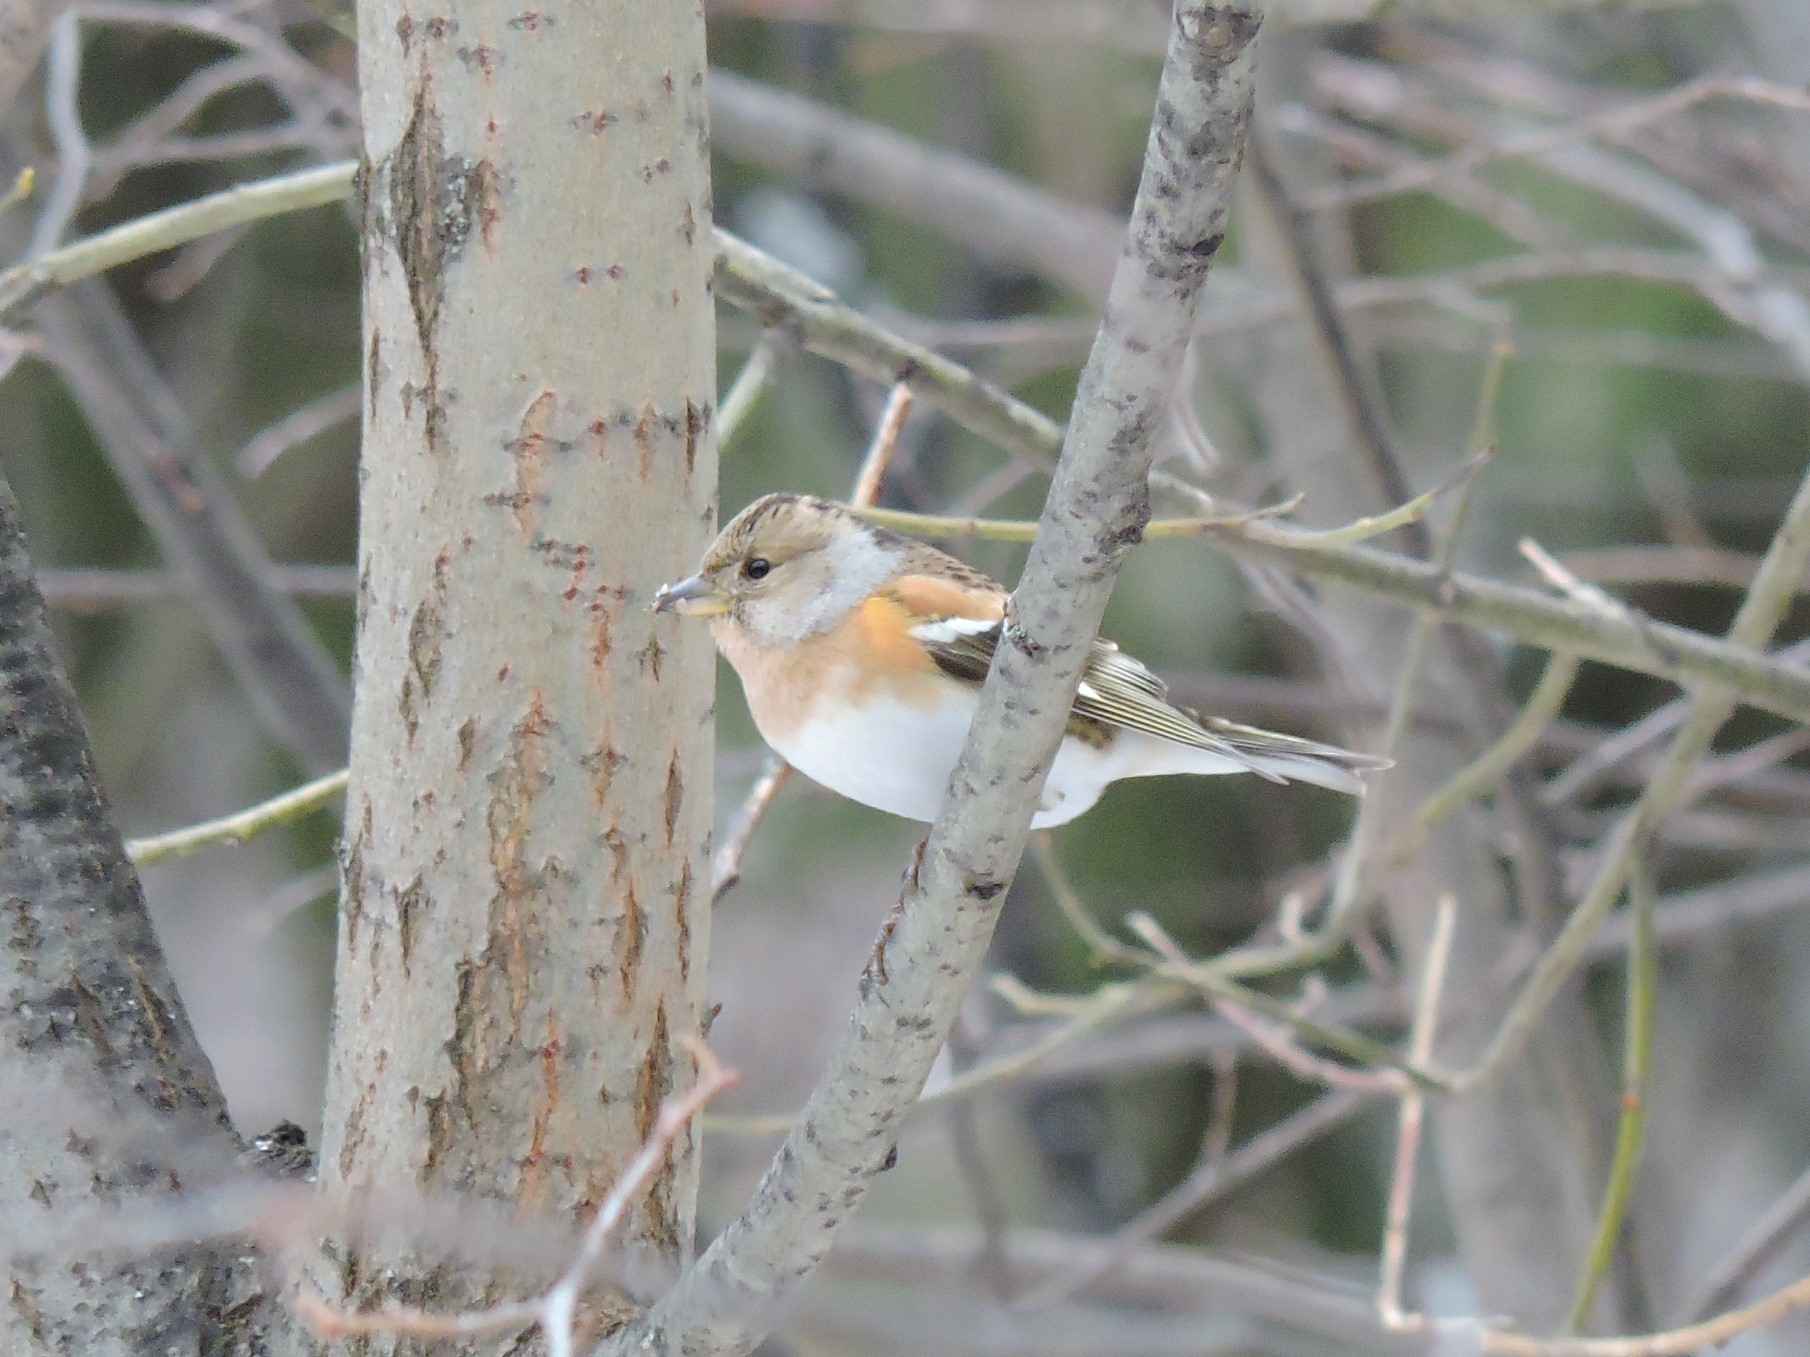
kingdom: Animalia
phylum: Chordata
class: Aves
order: Passeriformes
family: Fringillidae
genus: Fringilla
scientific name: Fringilla montifringilla
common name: Brambling
